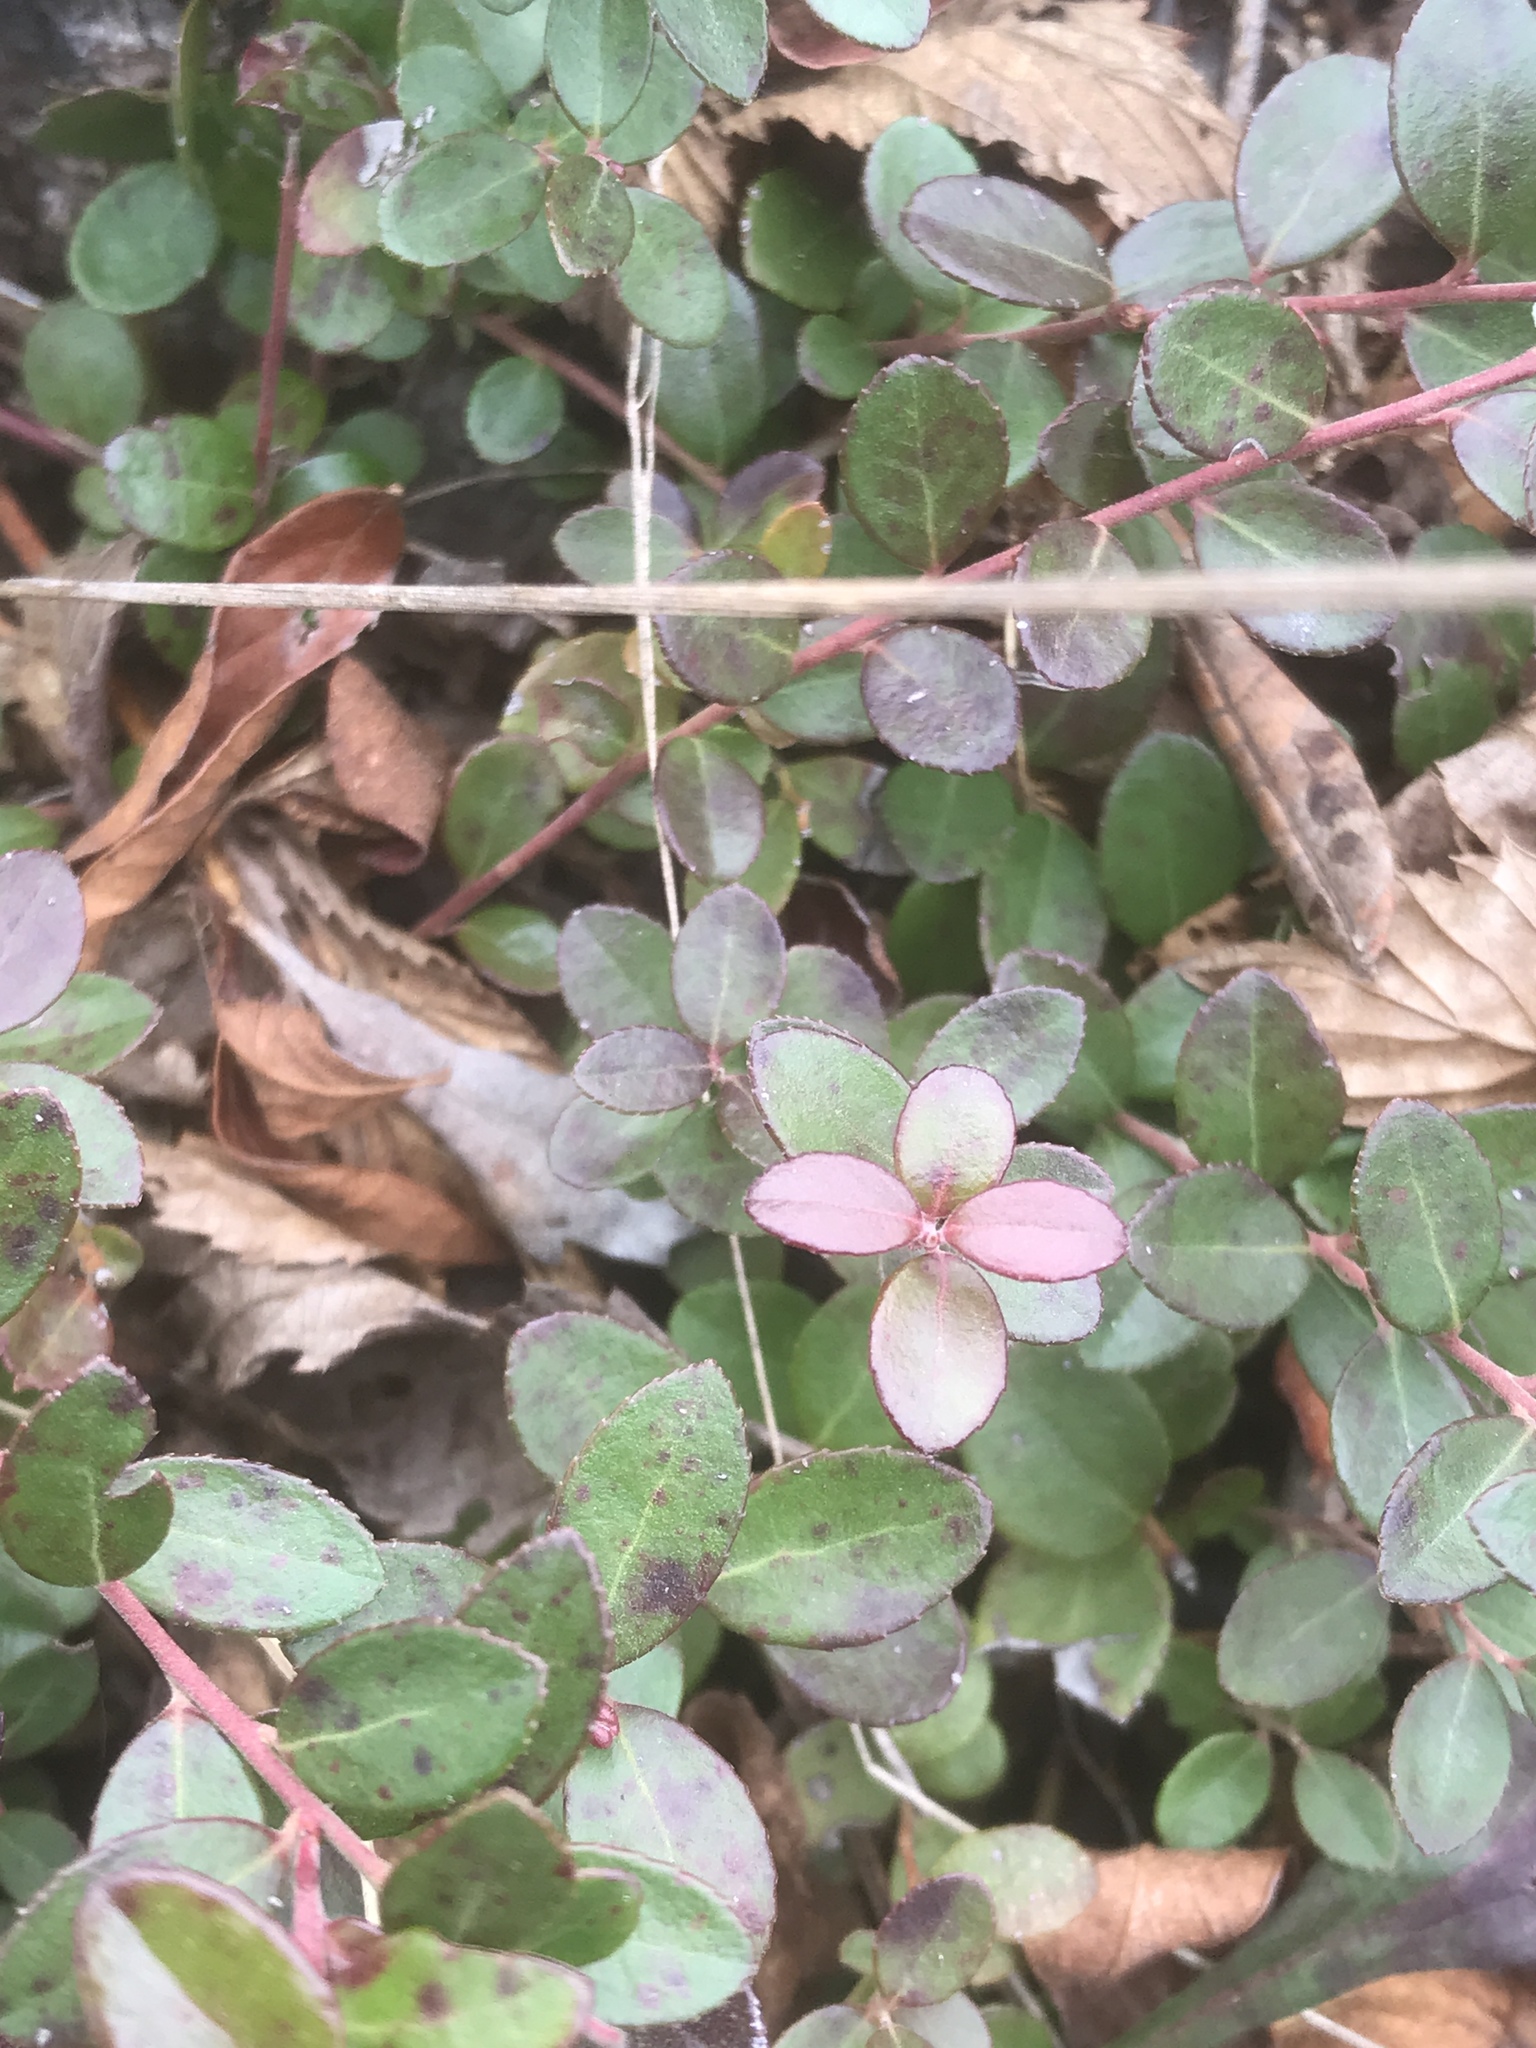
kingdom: Plantae
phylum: Tracheophyta
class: Magnoliopsida
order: Ericales
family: Ericaceae
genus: Vaccinium
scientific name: Vaccinium crassifolium
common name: Creeping blueberry
